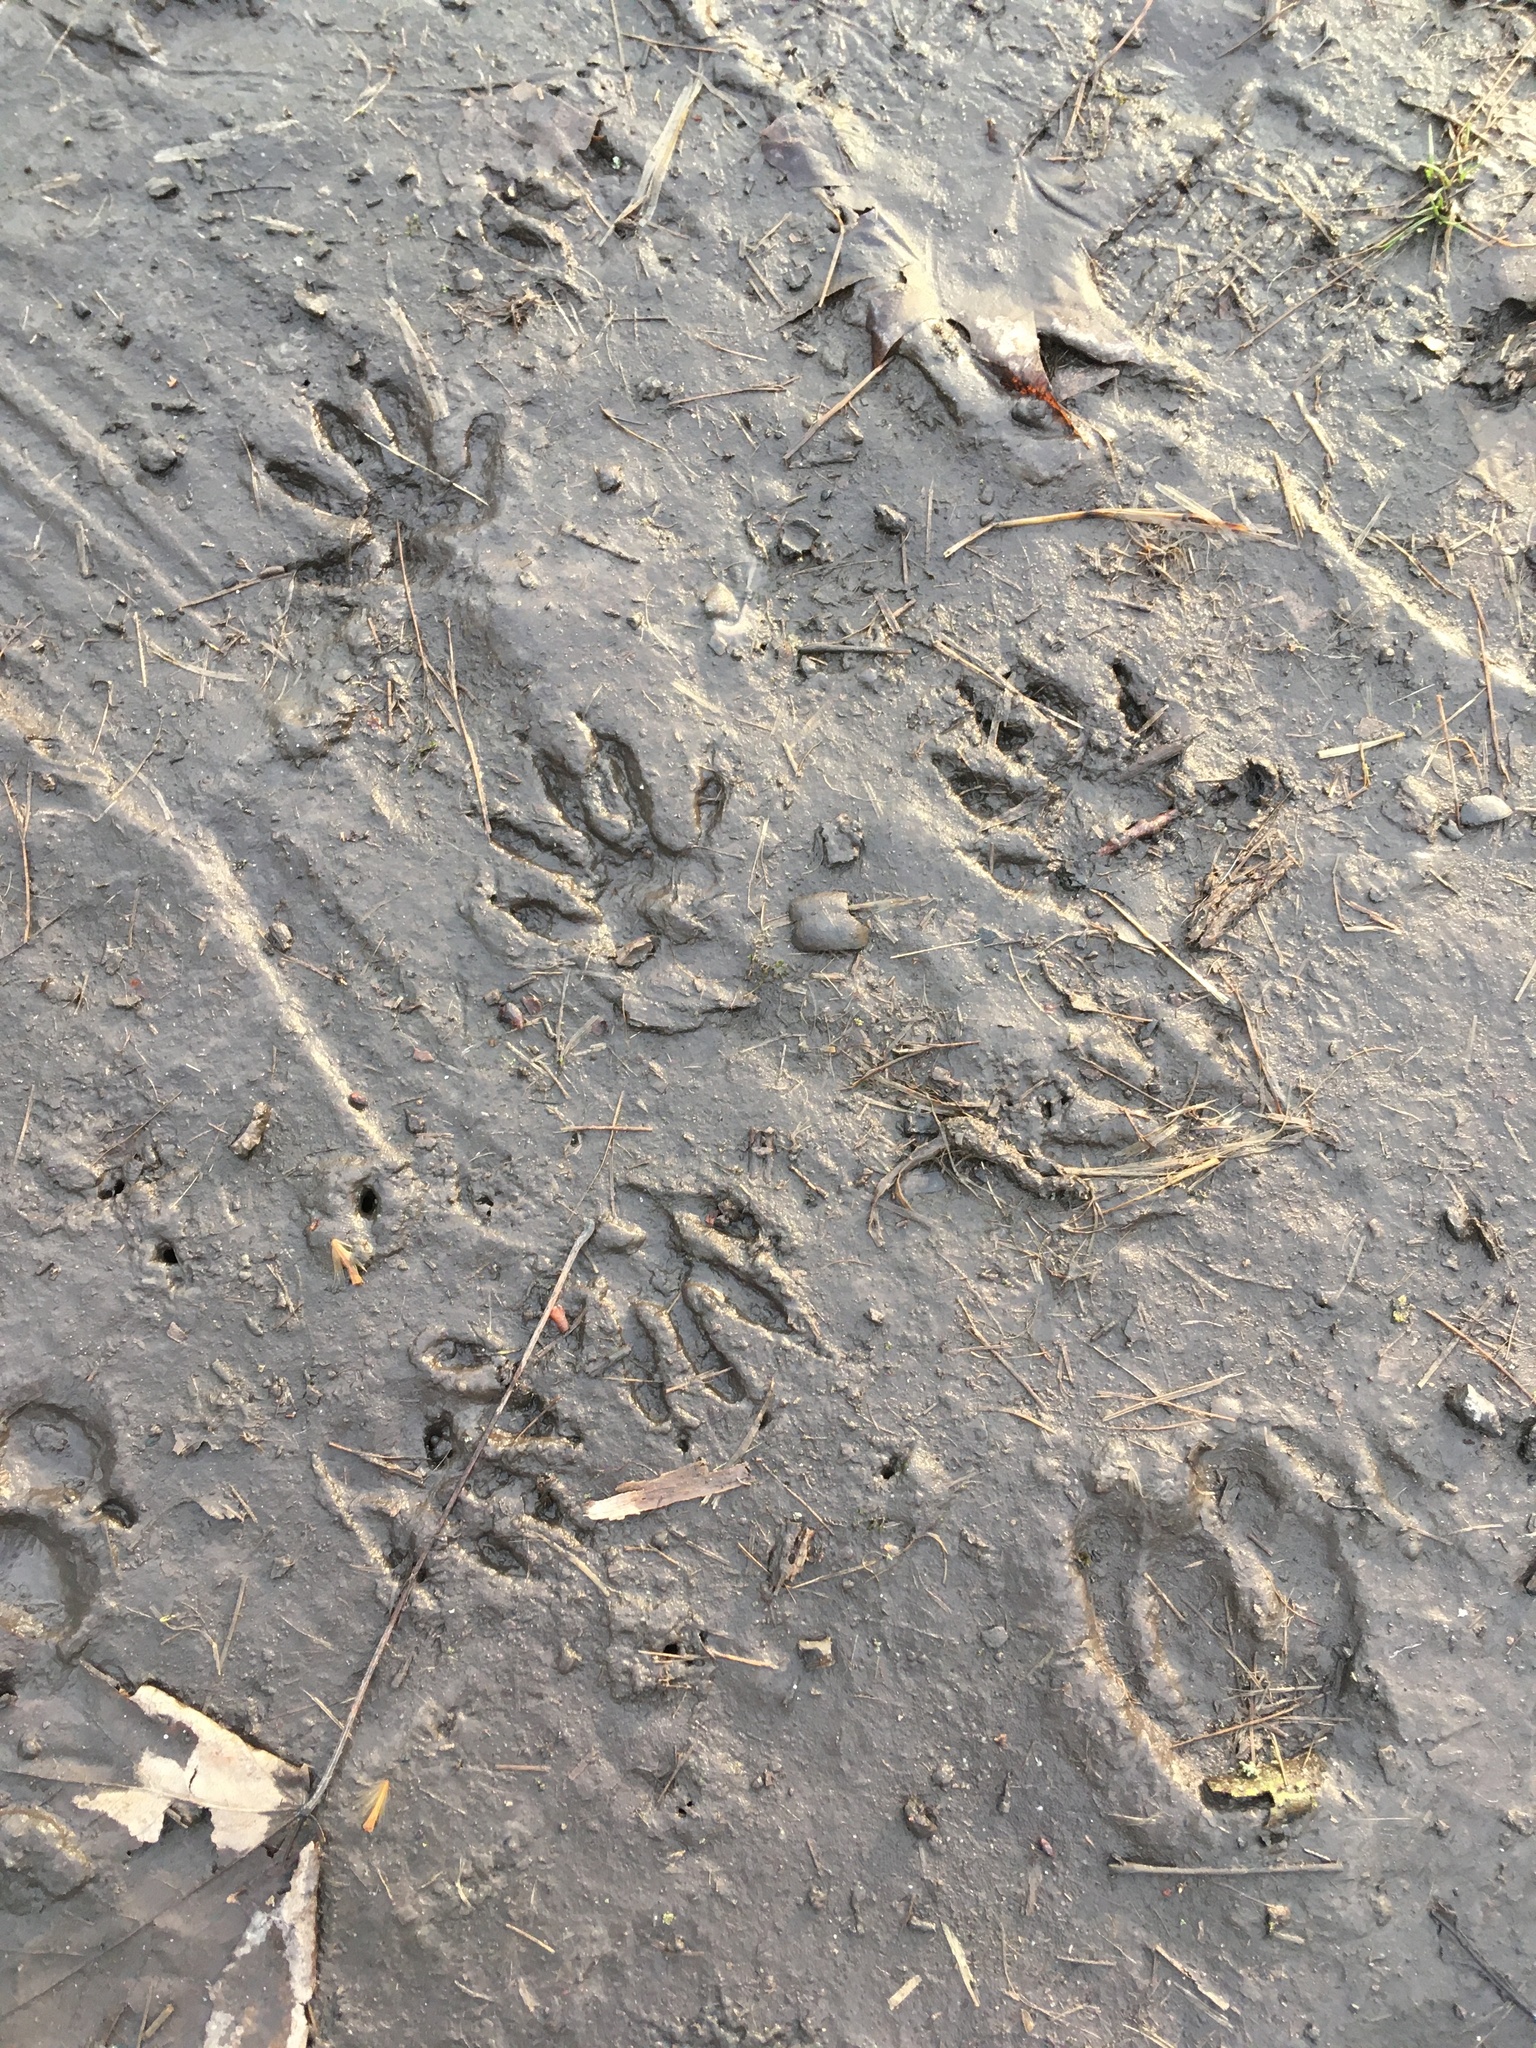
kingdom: Animalia
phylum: Chordata
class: Mammalia
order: Carnivora
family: Procyonidae
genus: Procyon
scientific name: Procyon lotor
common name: Raccoon
